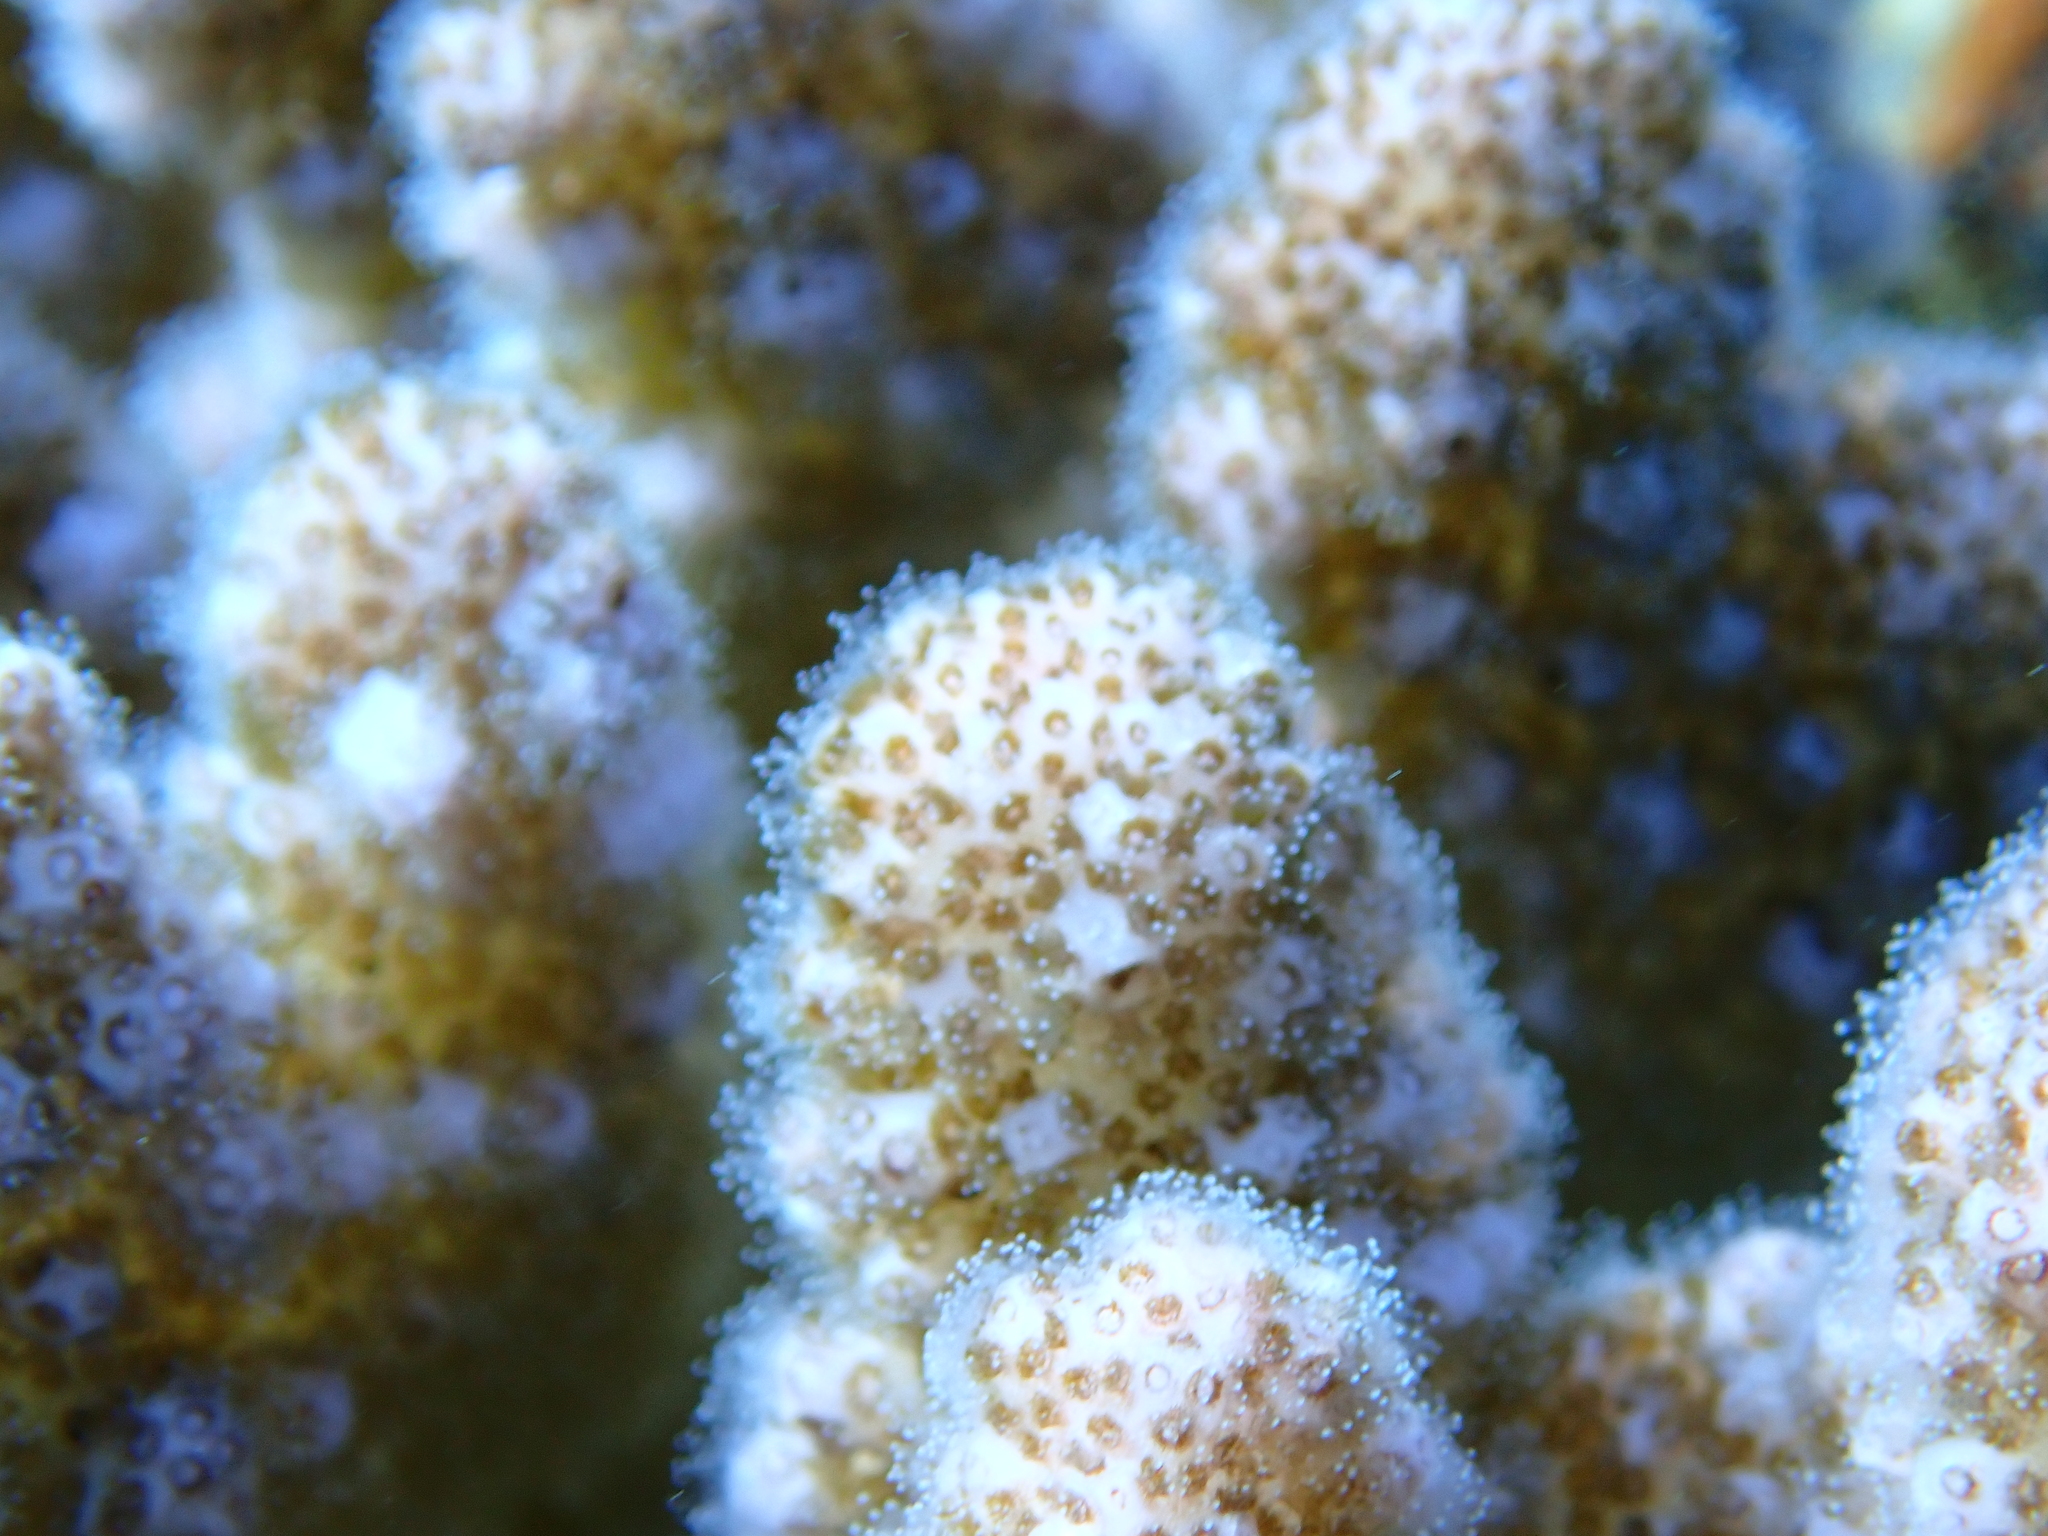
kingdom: Animalia
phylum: Cnidaria
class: Anthozoa
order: Scleractinia
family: Pocilloporidae
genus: Pocillopora
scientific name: Pocillopora verrucosa
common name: Cauliflower coral
